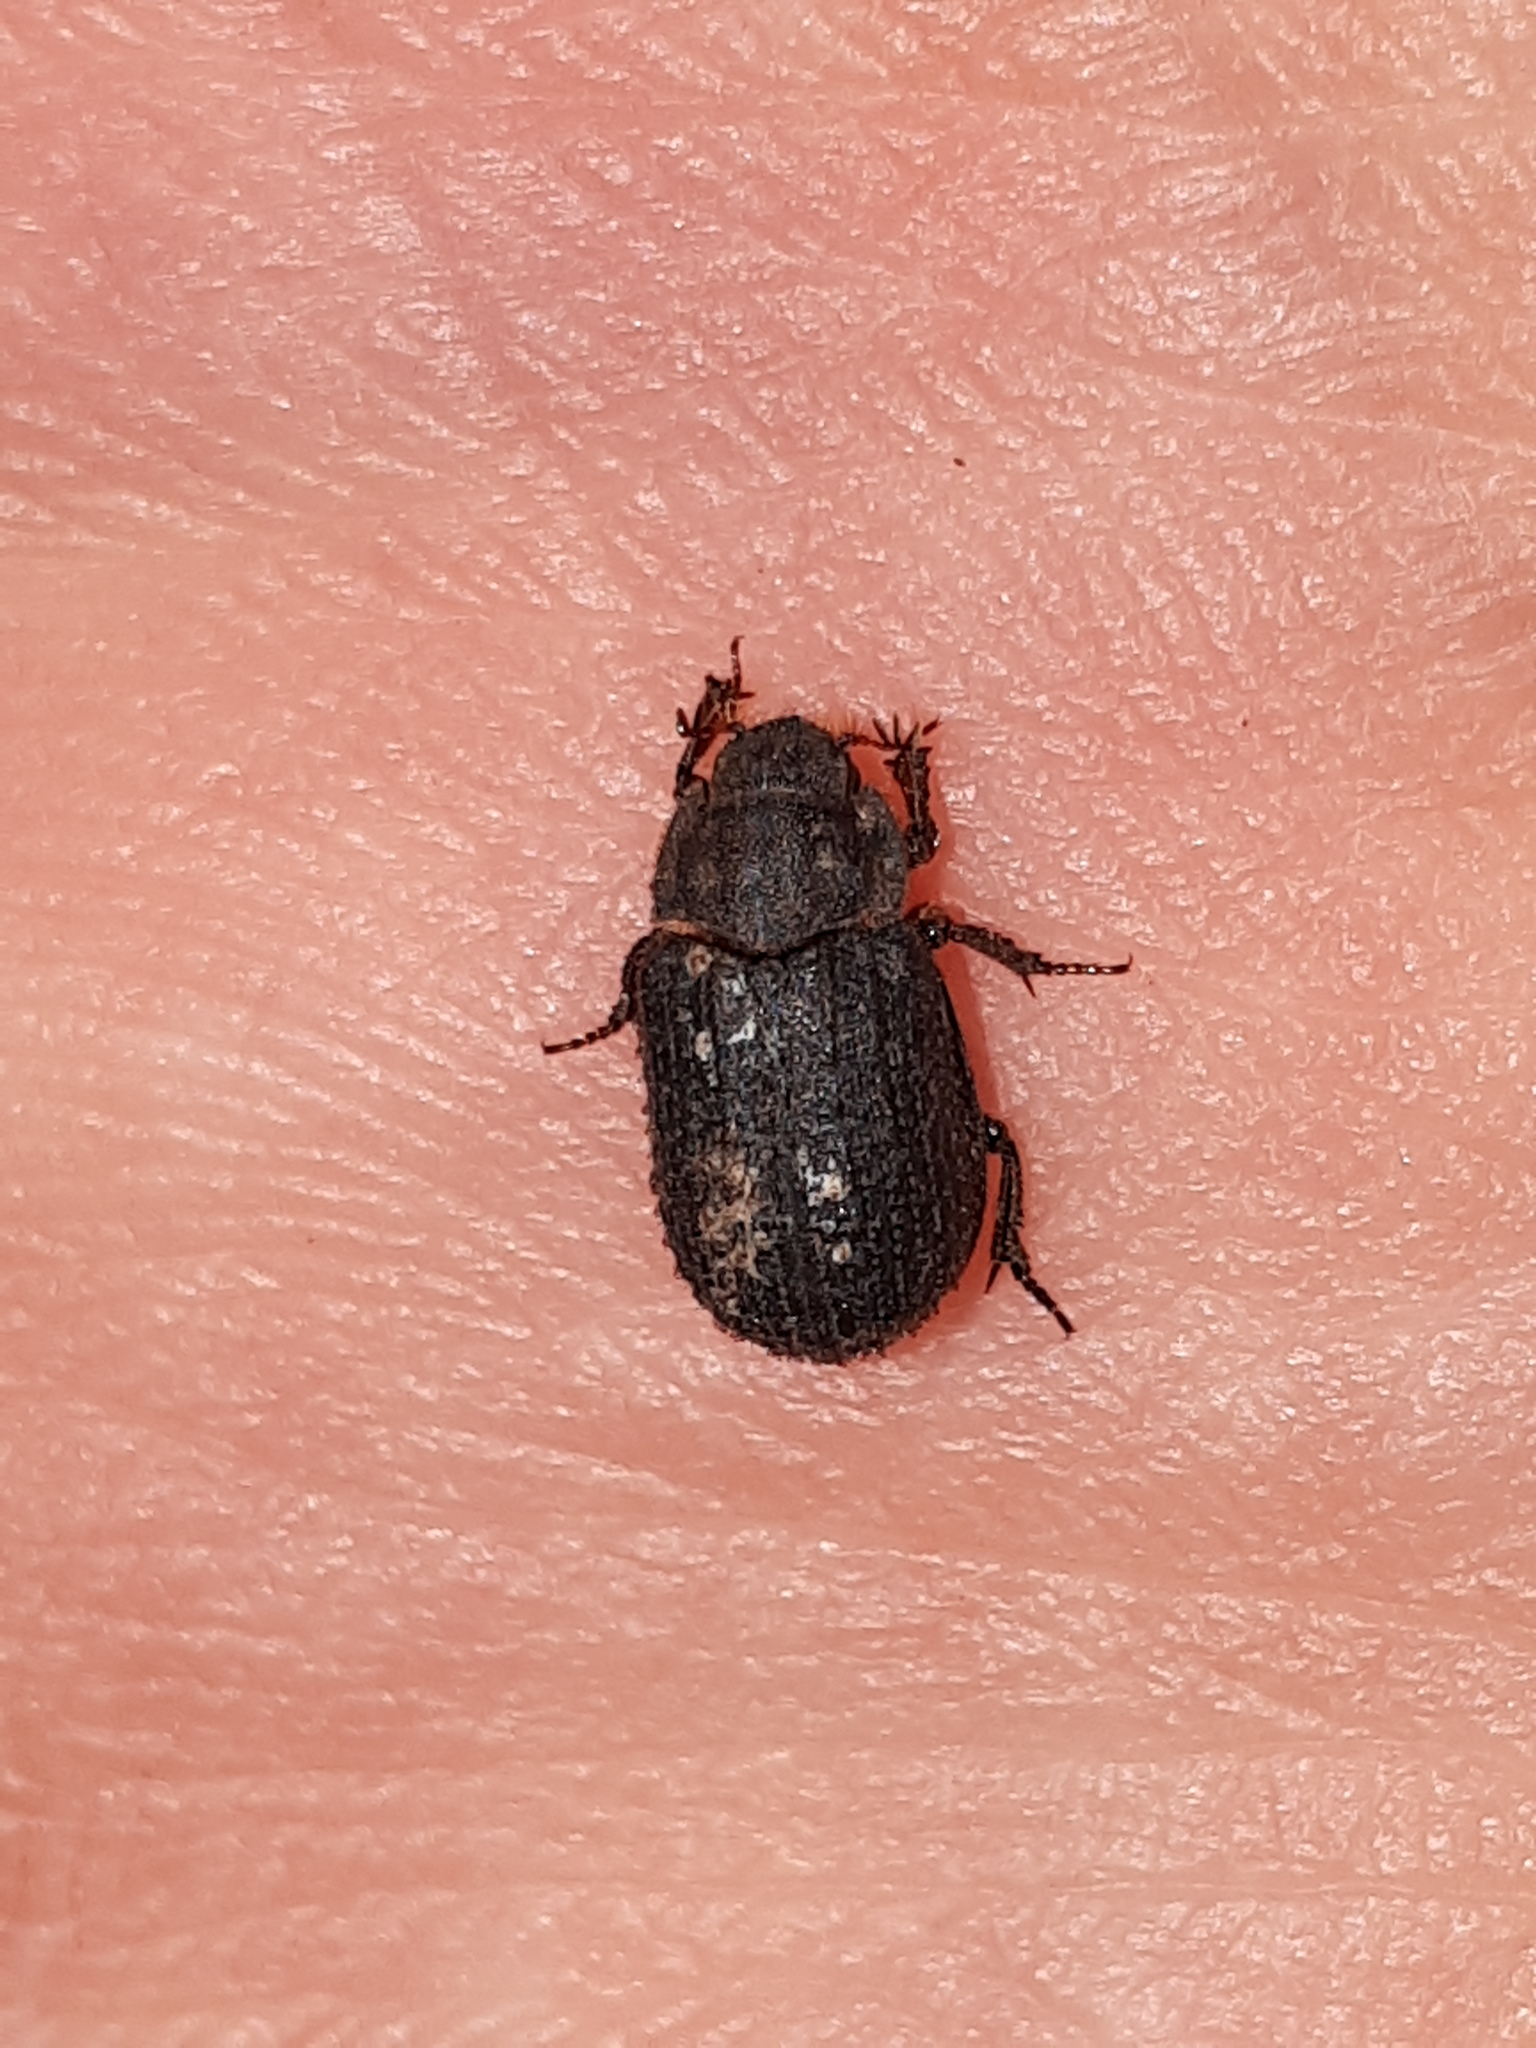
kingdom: Animalia
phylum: Arthropoda
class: Insecta
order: Coleoptera
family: Trogidae
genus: Trox
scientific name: Trox scaber
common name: Hide beetle
